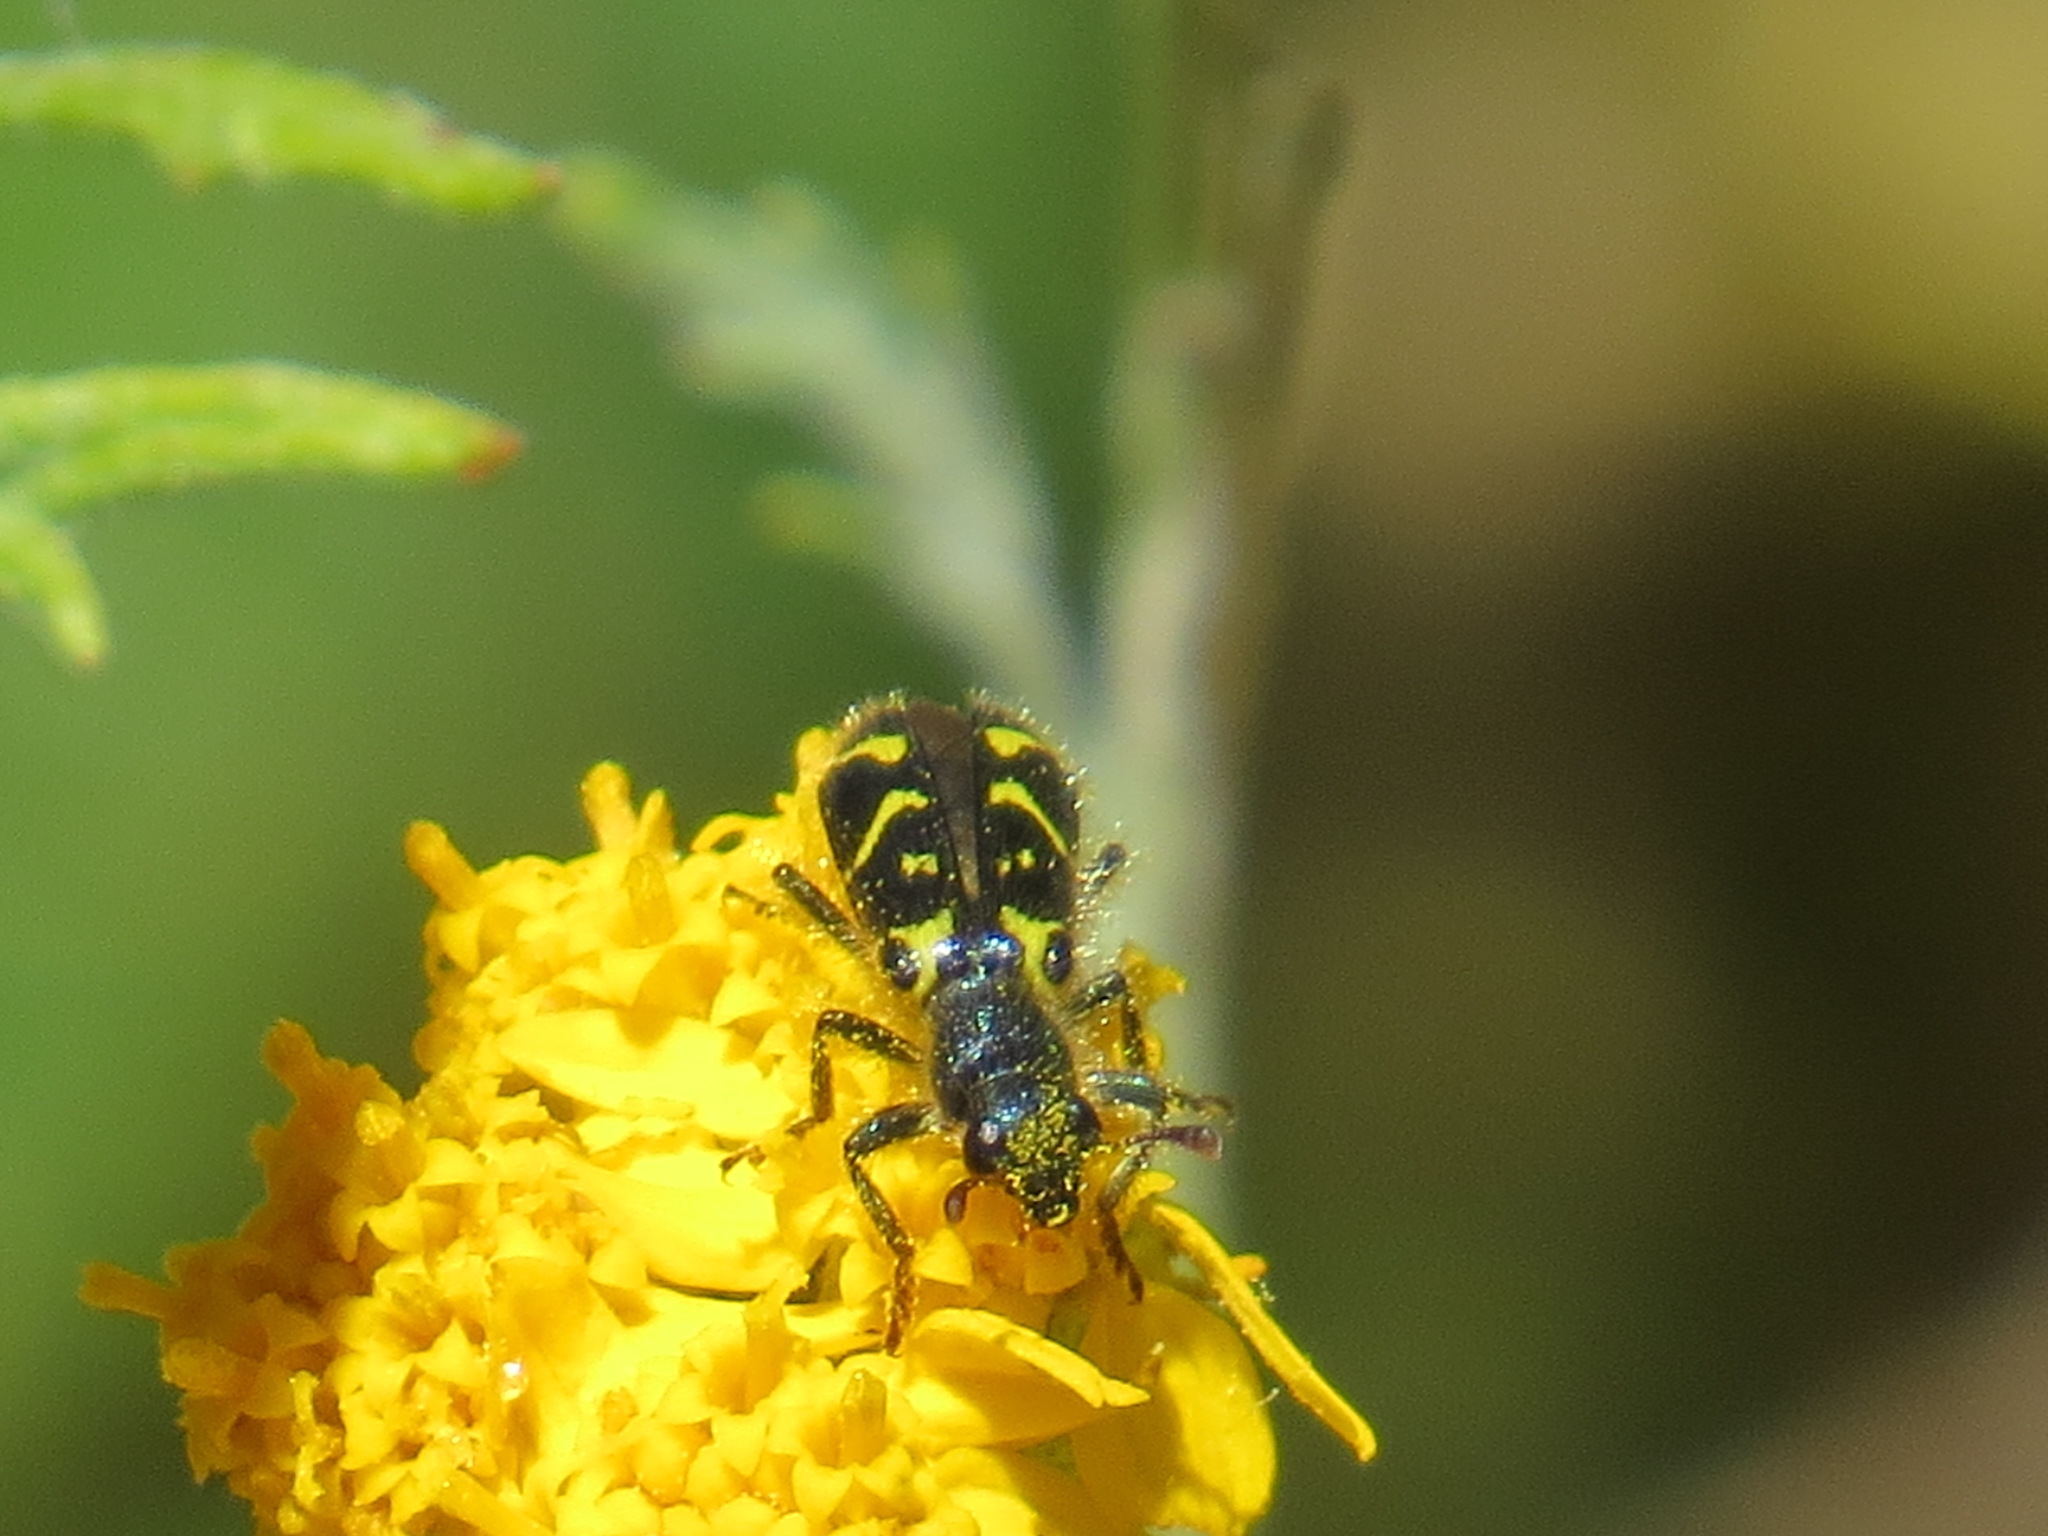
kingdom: Animalia
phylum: Arthropoda
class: Insecta
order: Coleoptera
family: Cleridae
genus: Trichodes
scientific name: Trichodes ornatus
